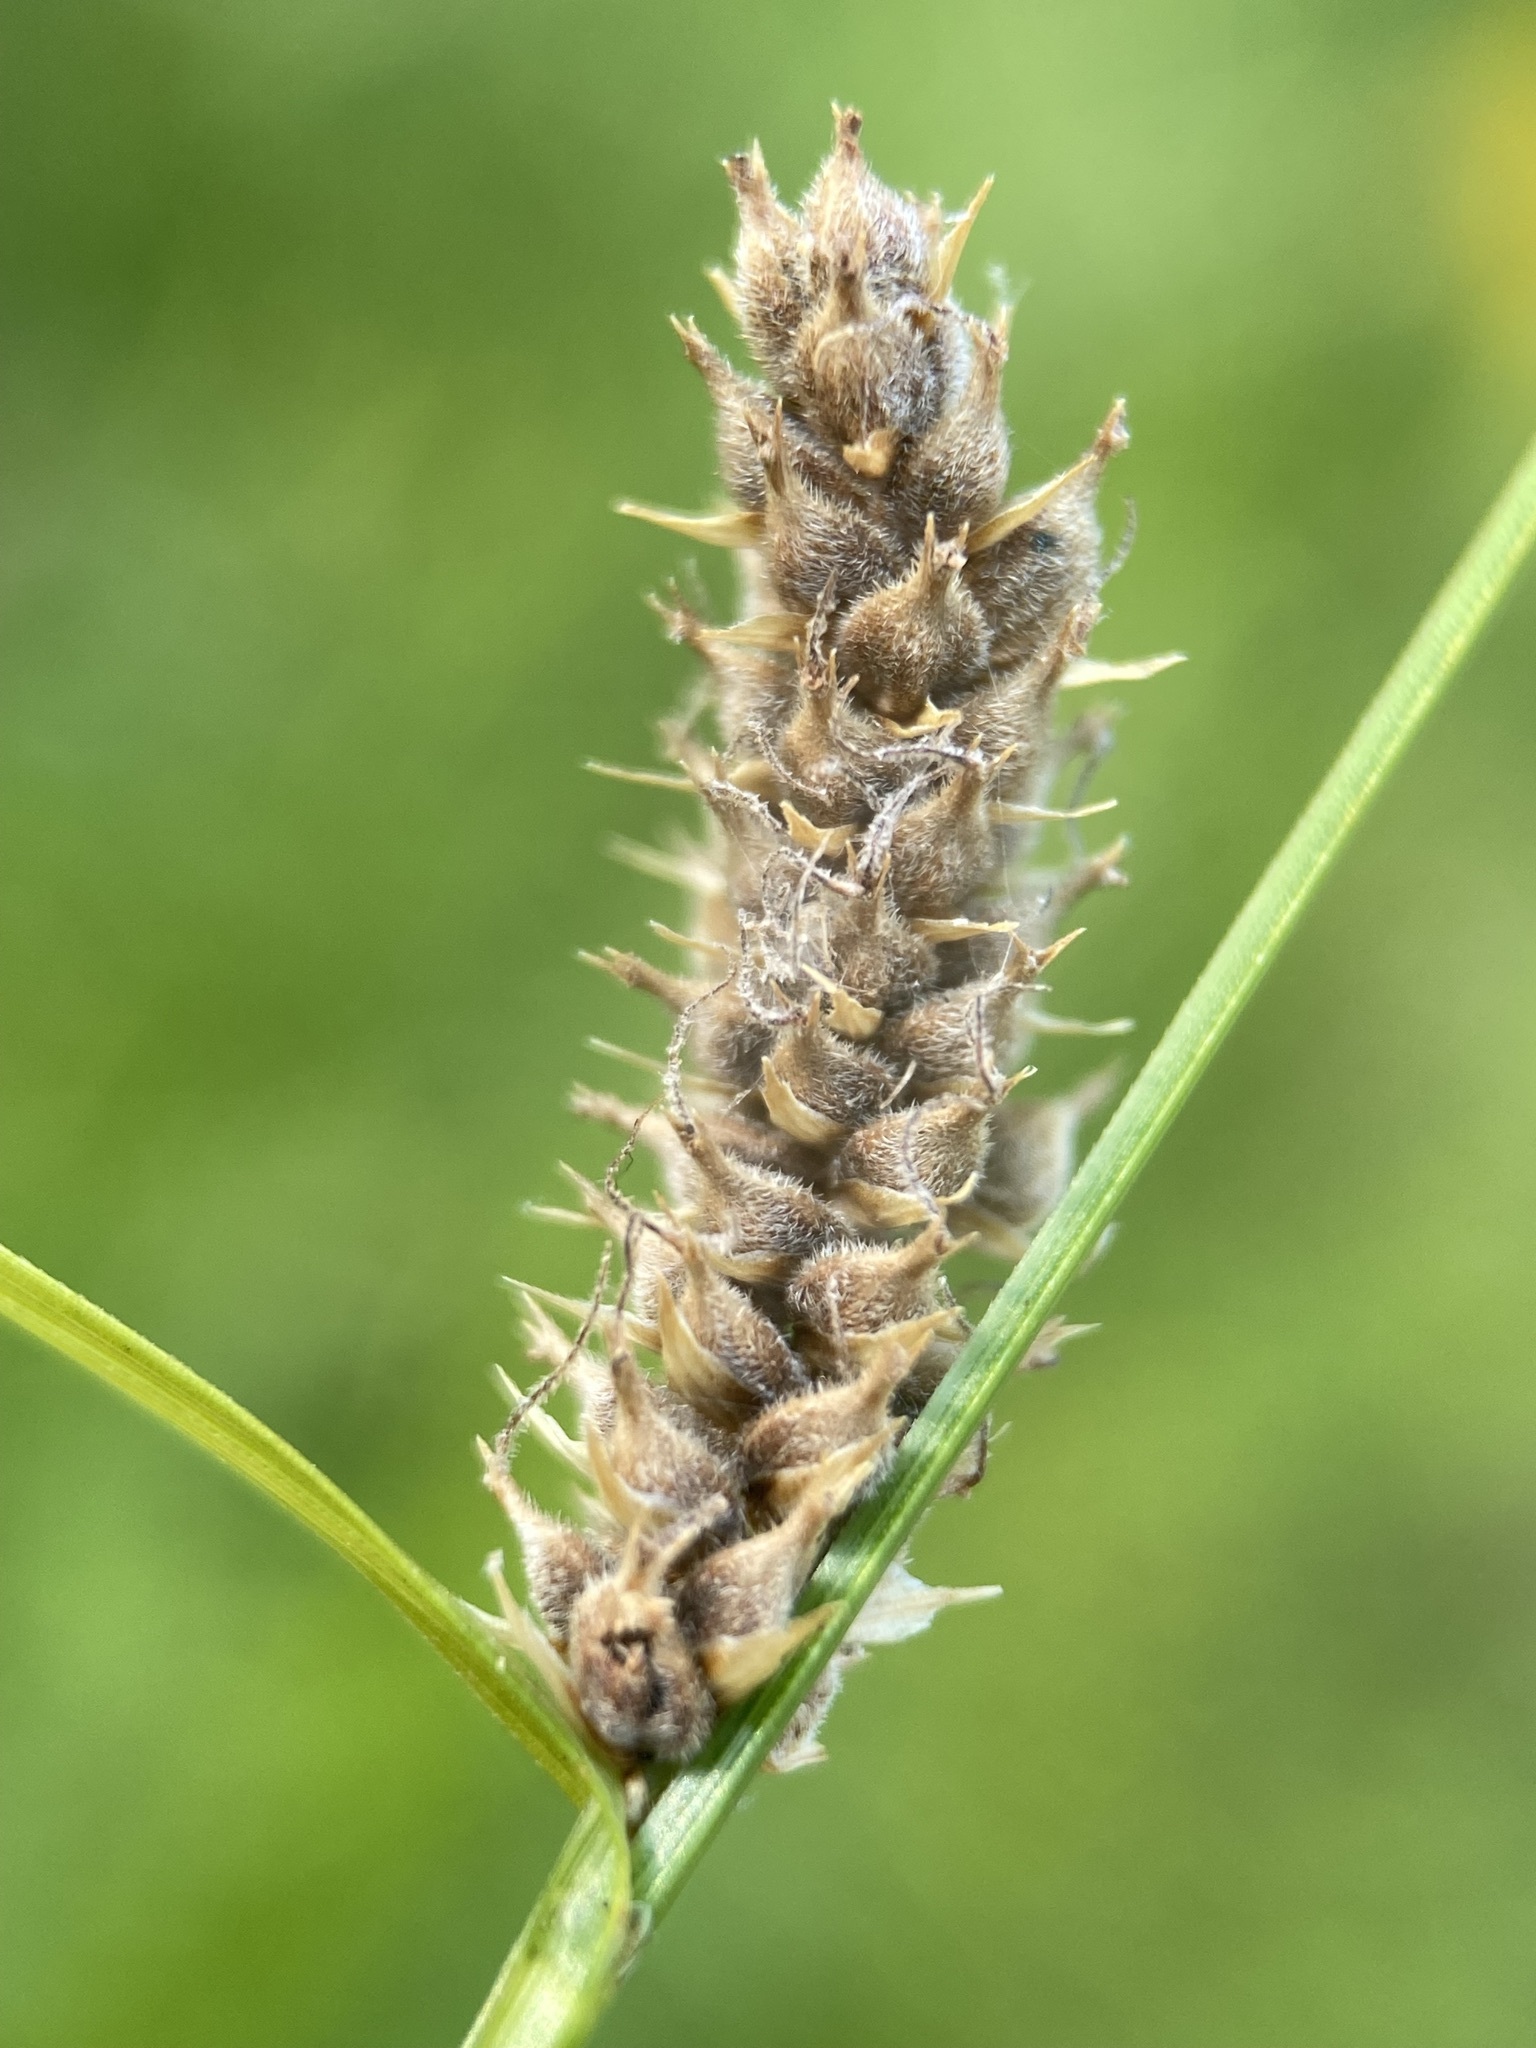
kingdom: Plantae
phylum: Tracheophyta
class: Liliopsida
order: Poales
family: Cyperaceae
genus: Carex
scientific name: Carex pellita
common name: Woolly sedge
